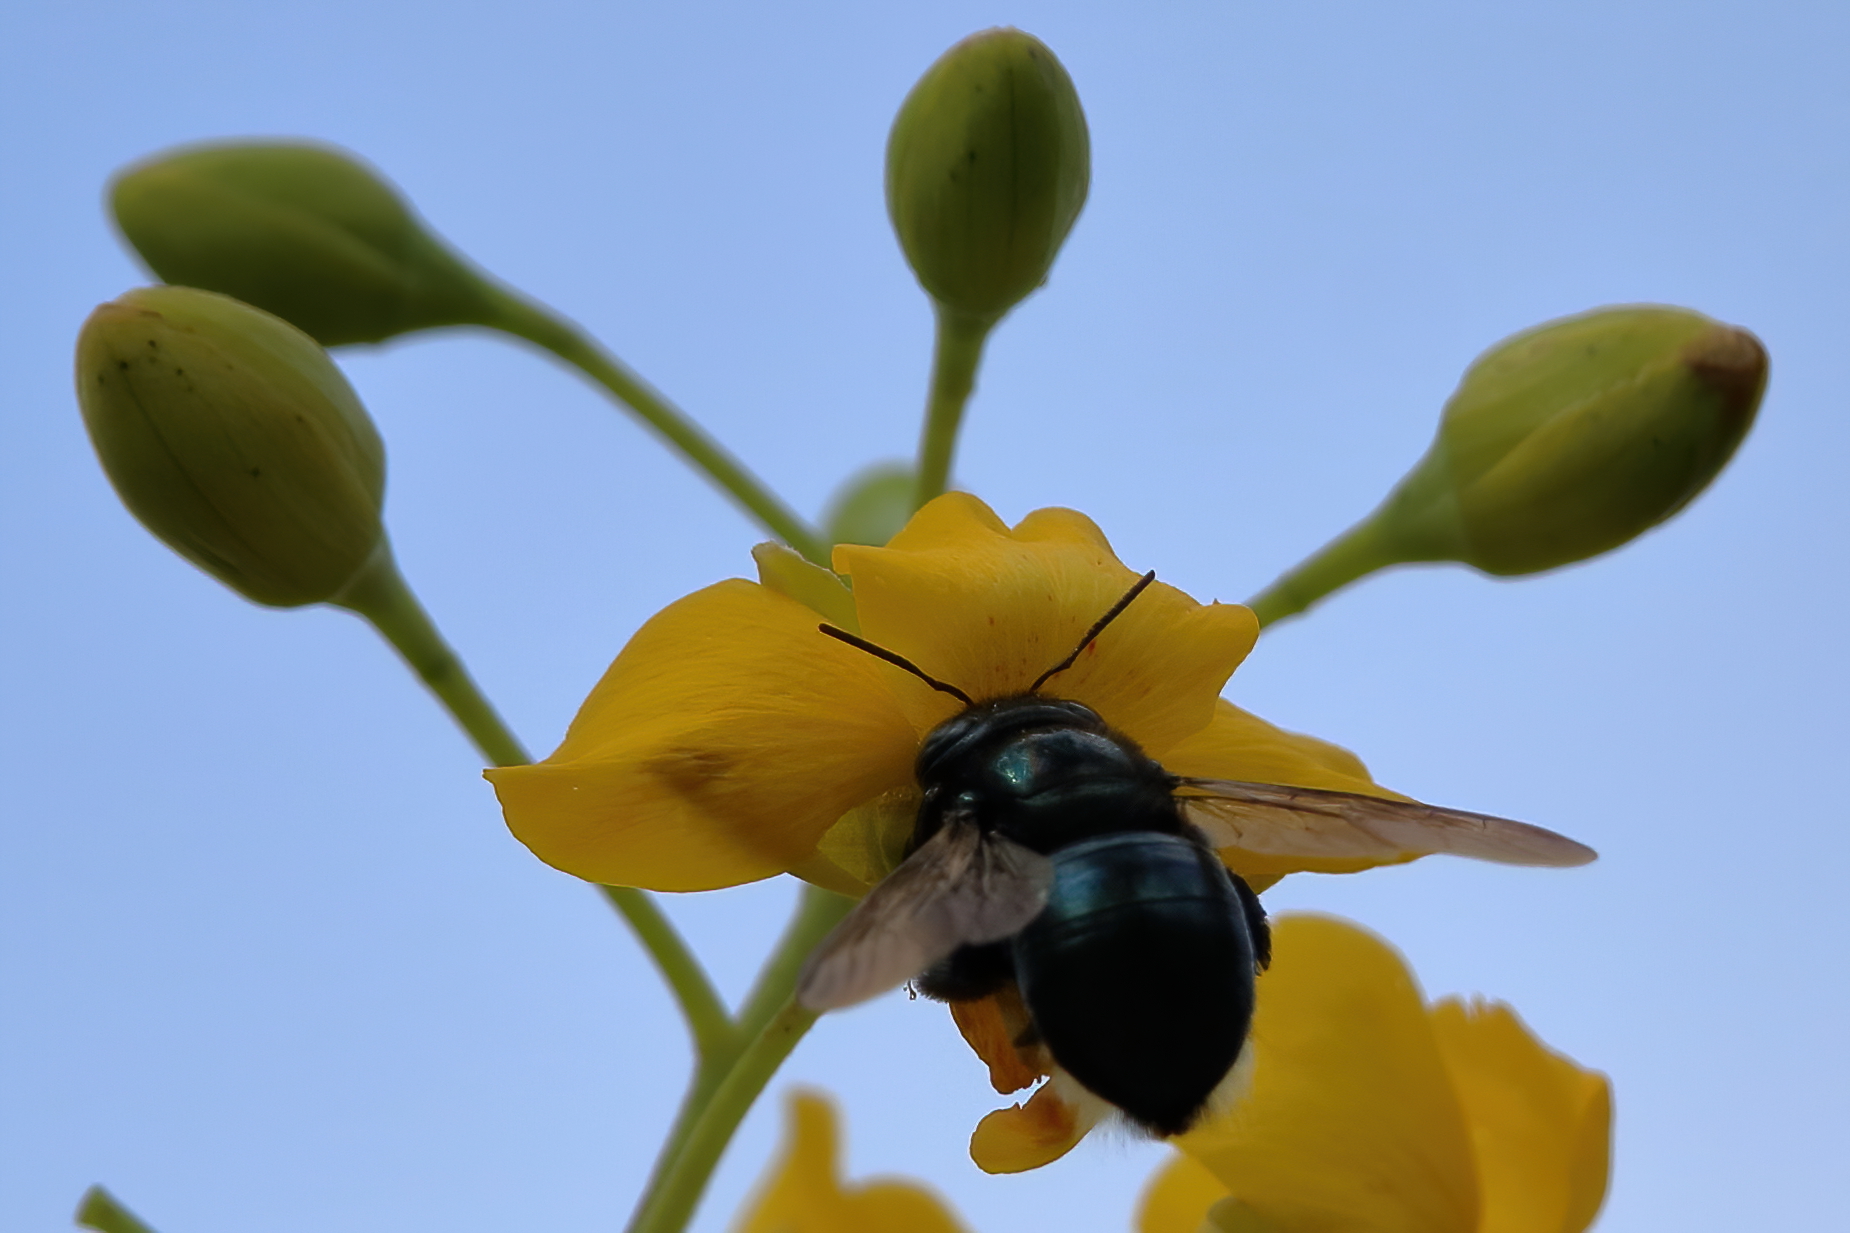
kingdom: Animalia
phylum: Arthropoda
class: Insecta
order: Hymenoptera
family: Apidae
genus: Xylocopa
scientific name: Xylocopa micans
